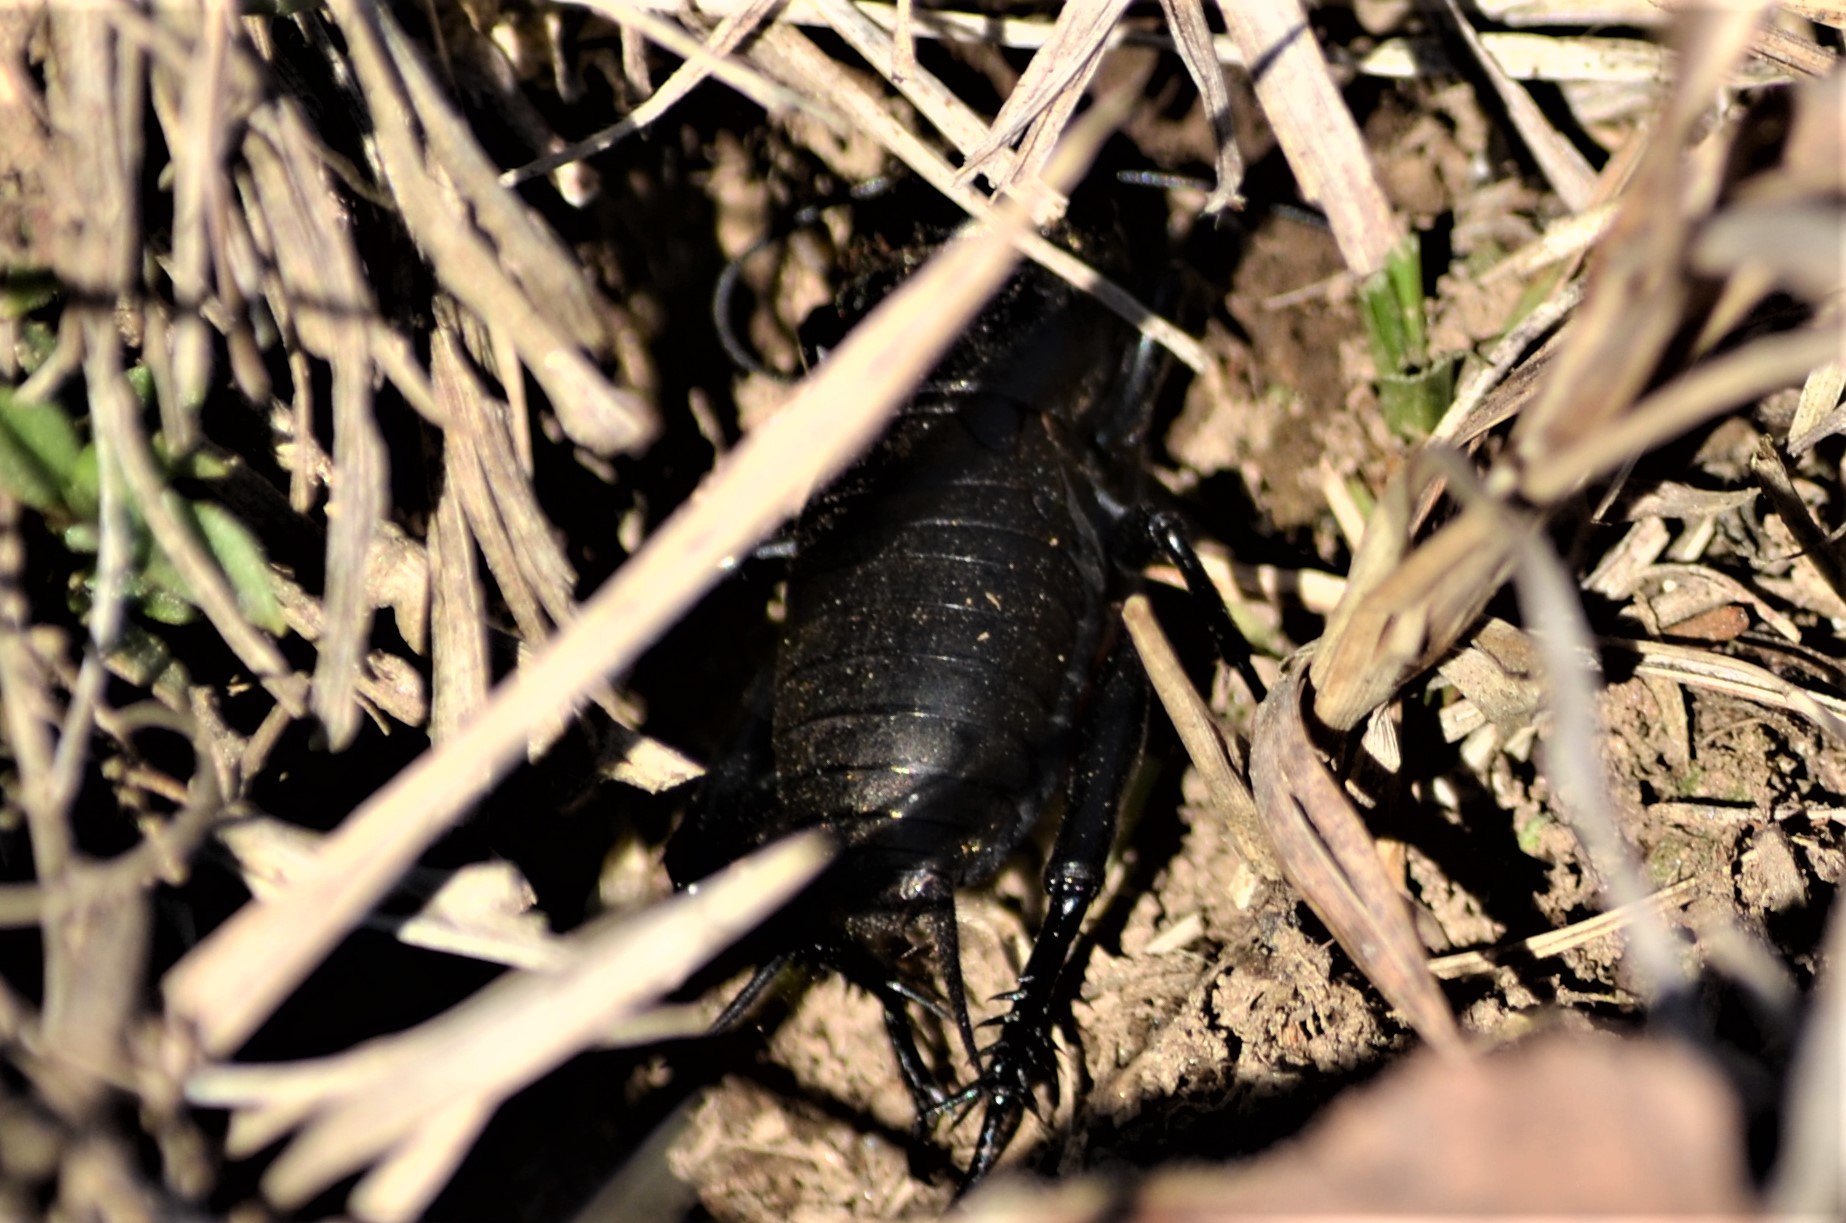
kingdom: Animalia
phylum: Arthropoda
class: Insecta
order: Orthoptera
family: Gryllidae
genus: Gryllus
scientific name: Gryllus campestris
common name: Field cricket
